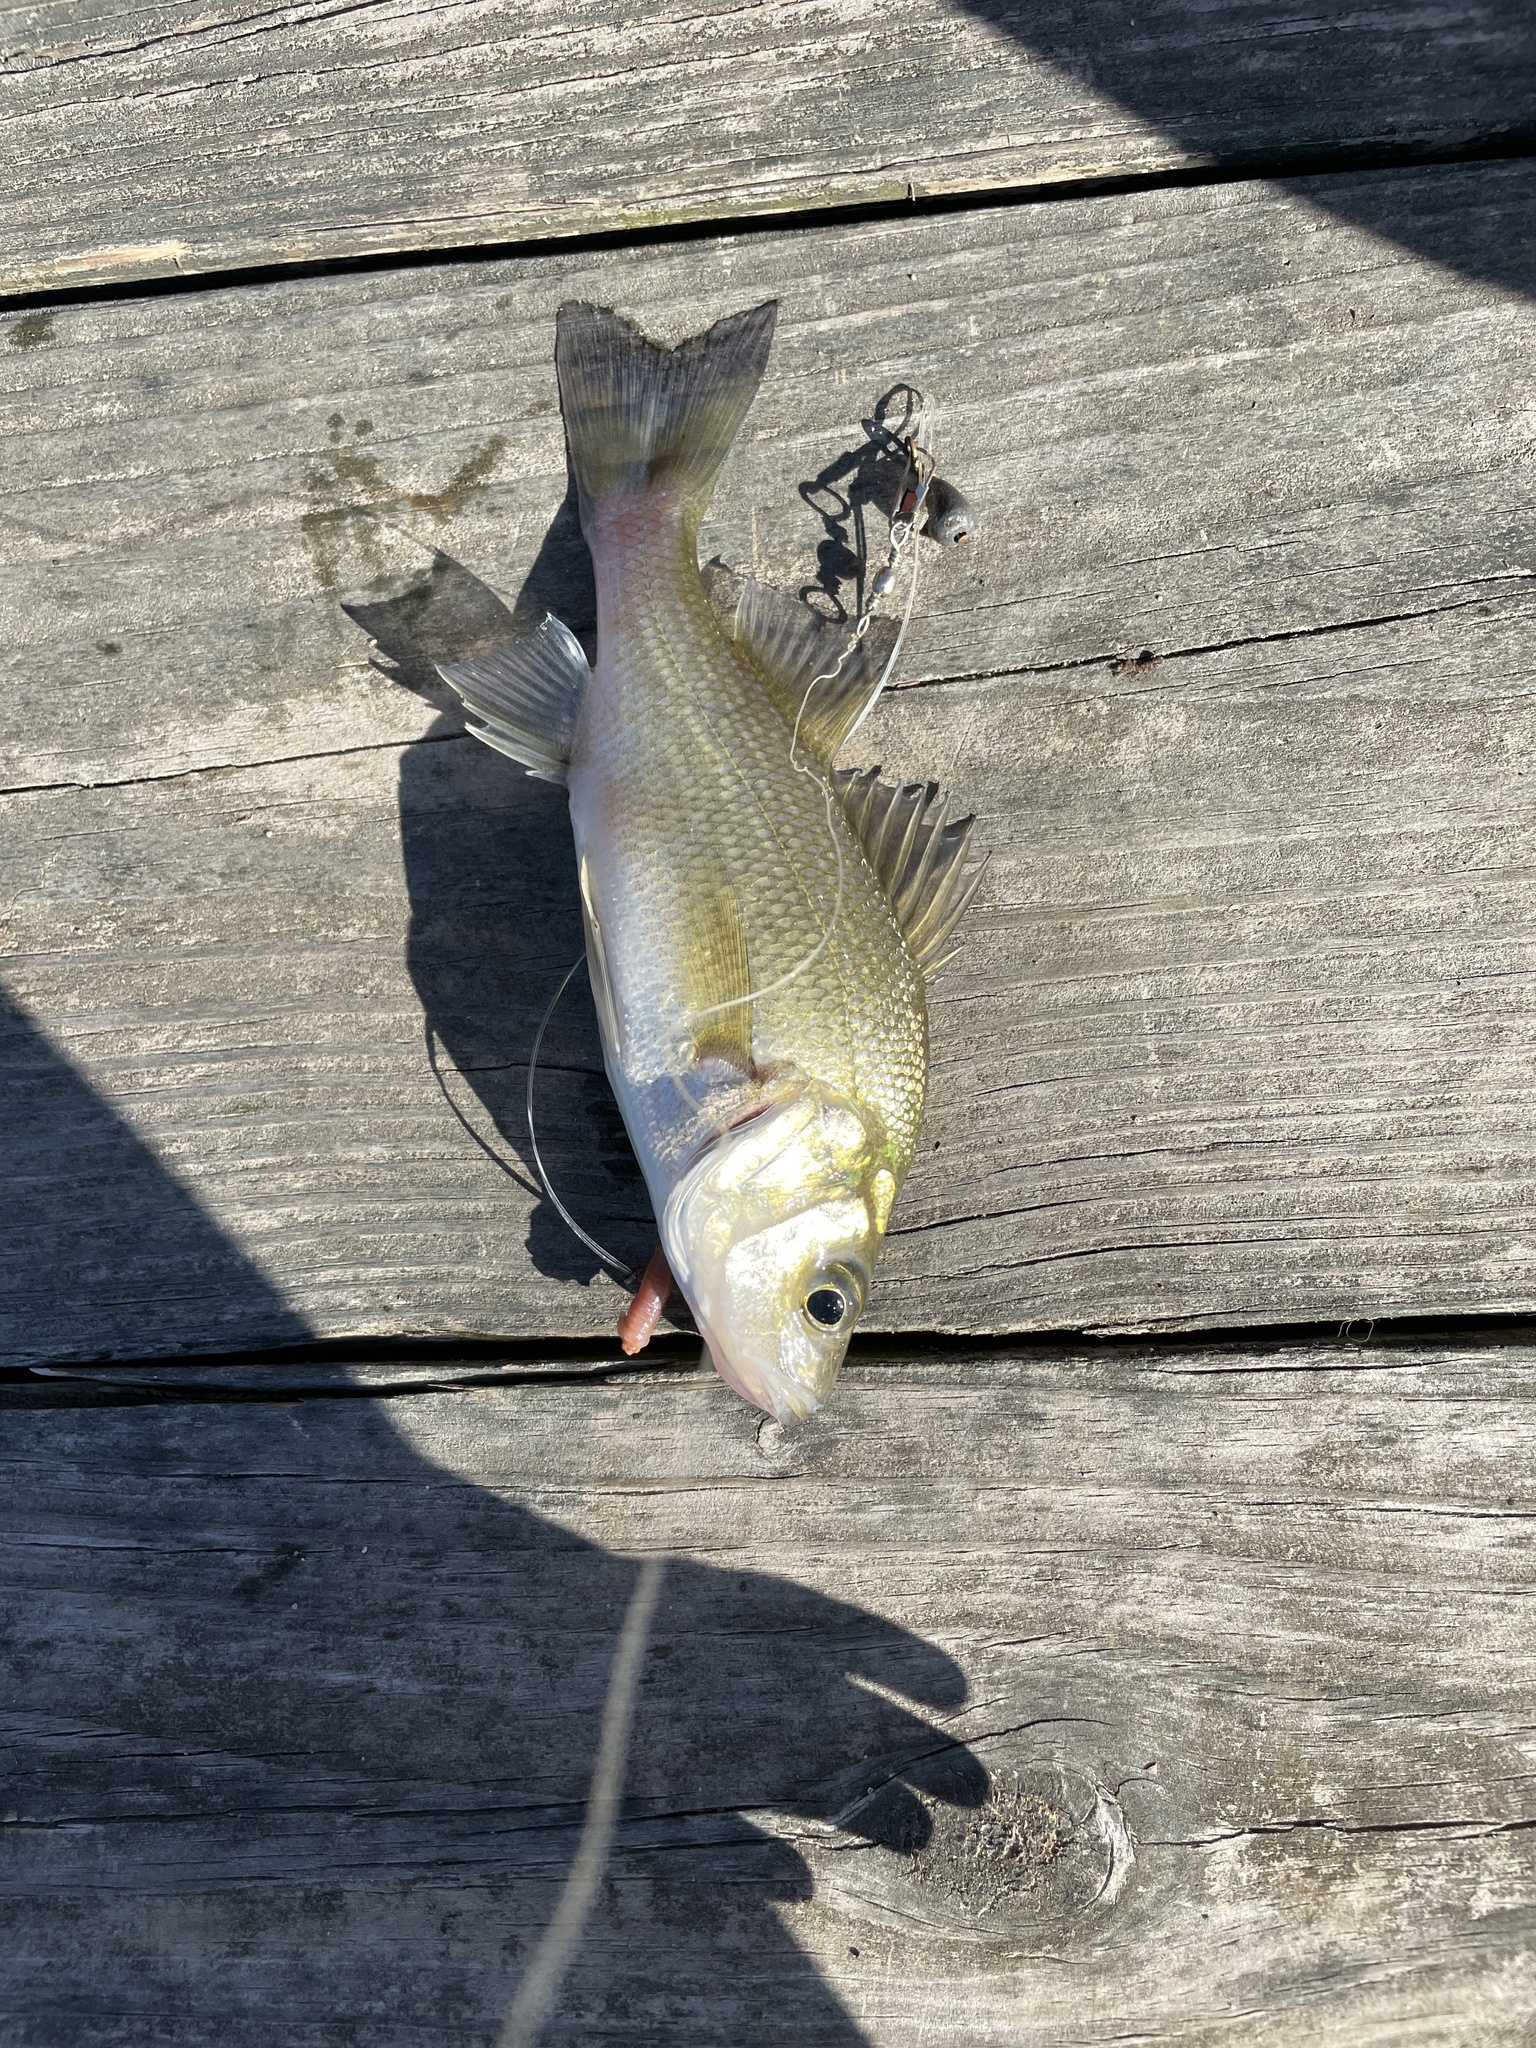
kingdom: Animalia
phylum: Chordata
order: Perciformes
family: Moronidae
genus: Morone
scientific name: Morone americana
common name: White perch
